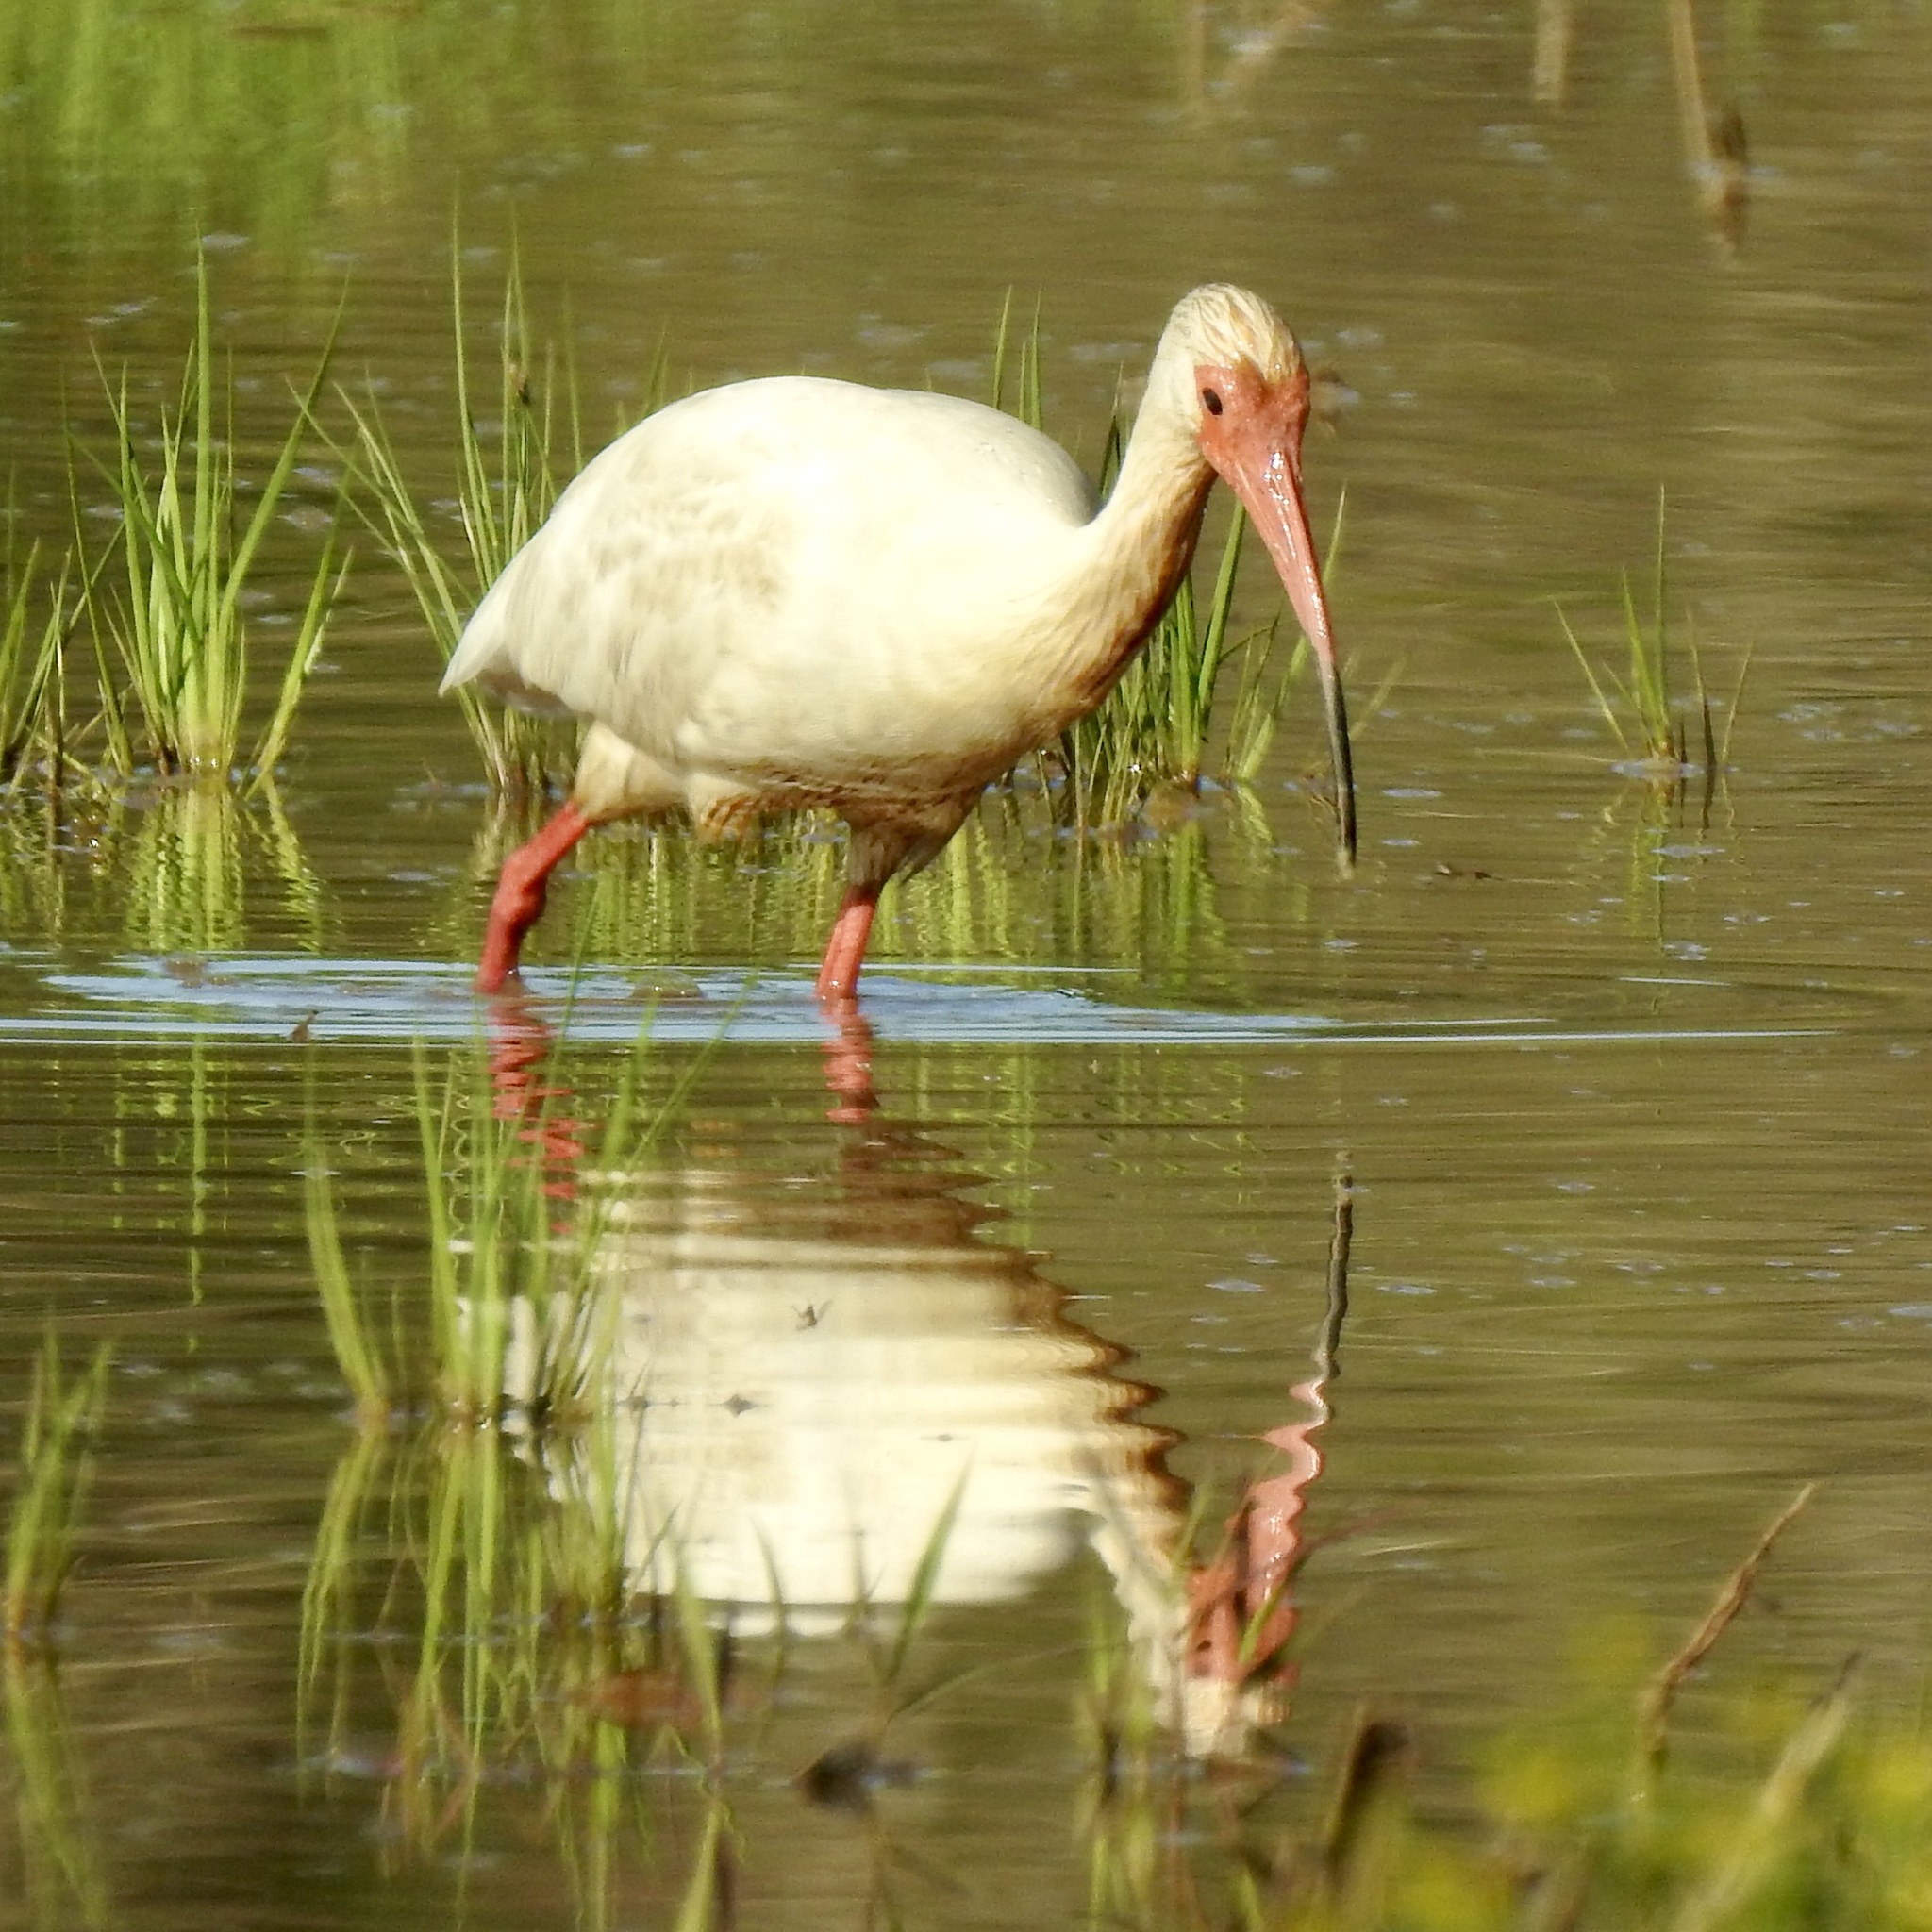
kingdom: Animalia
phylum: Chordata
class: Aves
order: Pelecaniformes
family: Threskiornithidae
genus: Eudocimus
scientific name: Eudocimus albus
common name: White ibis
